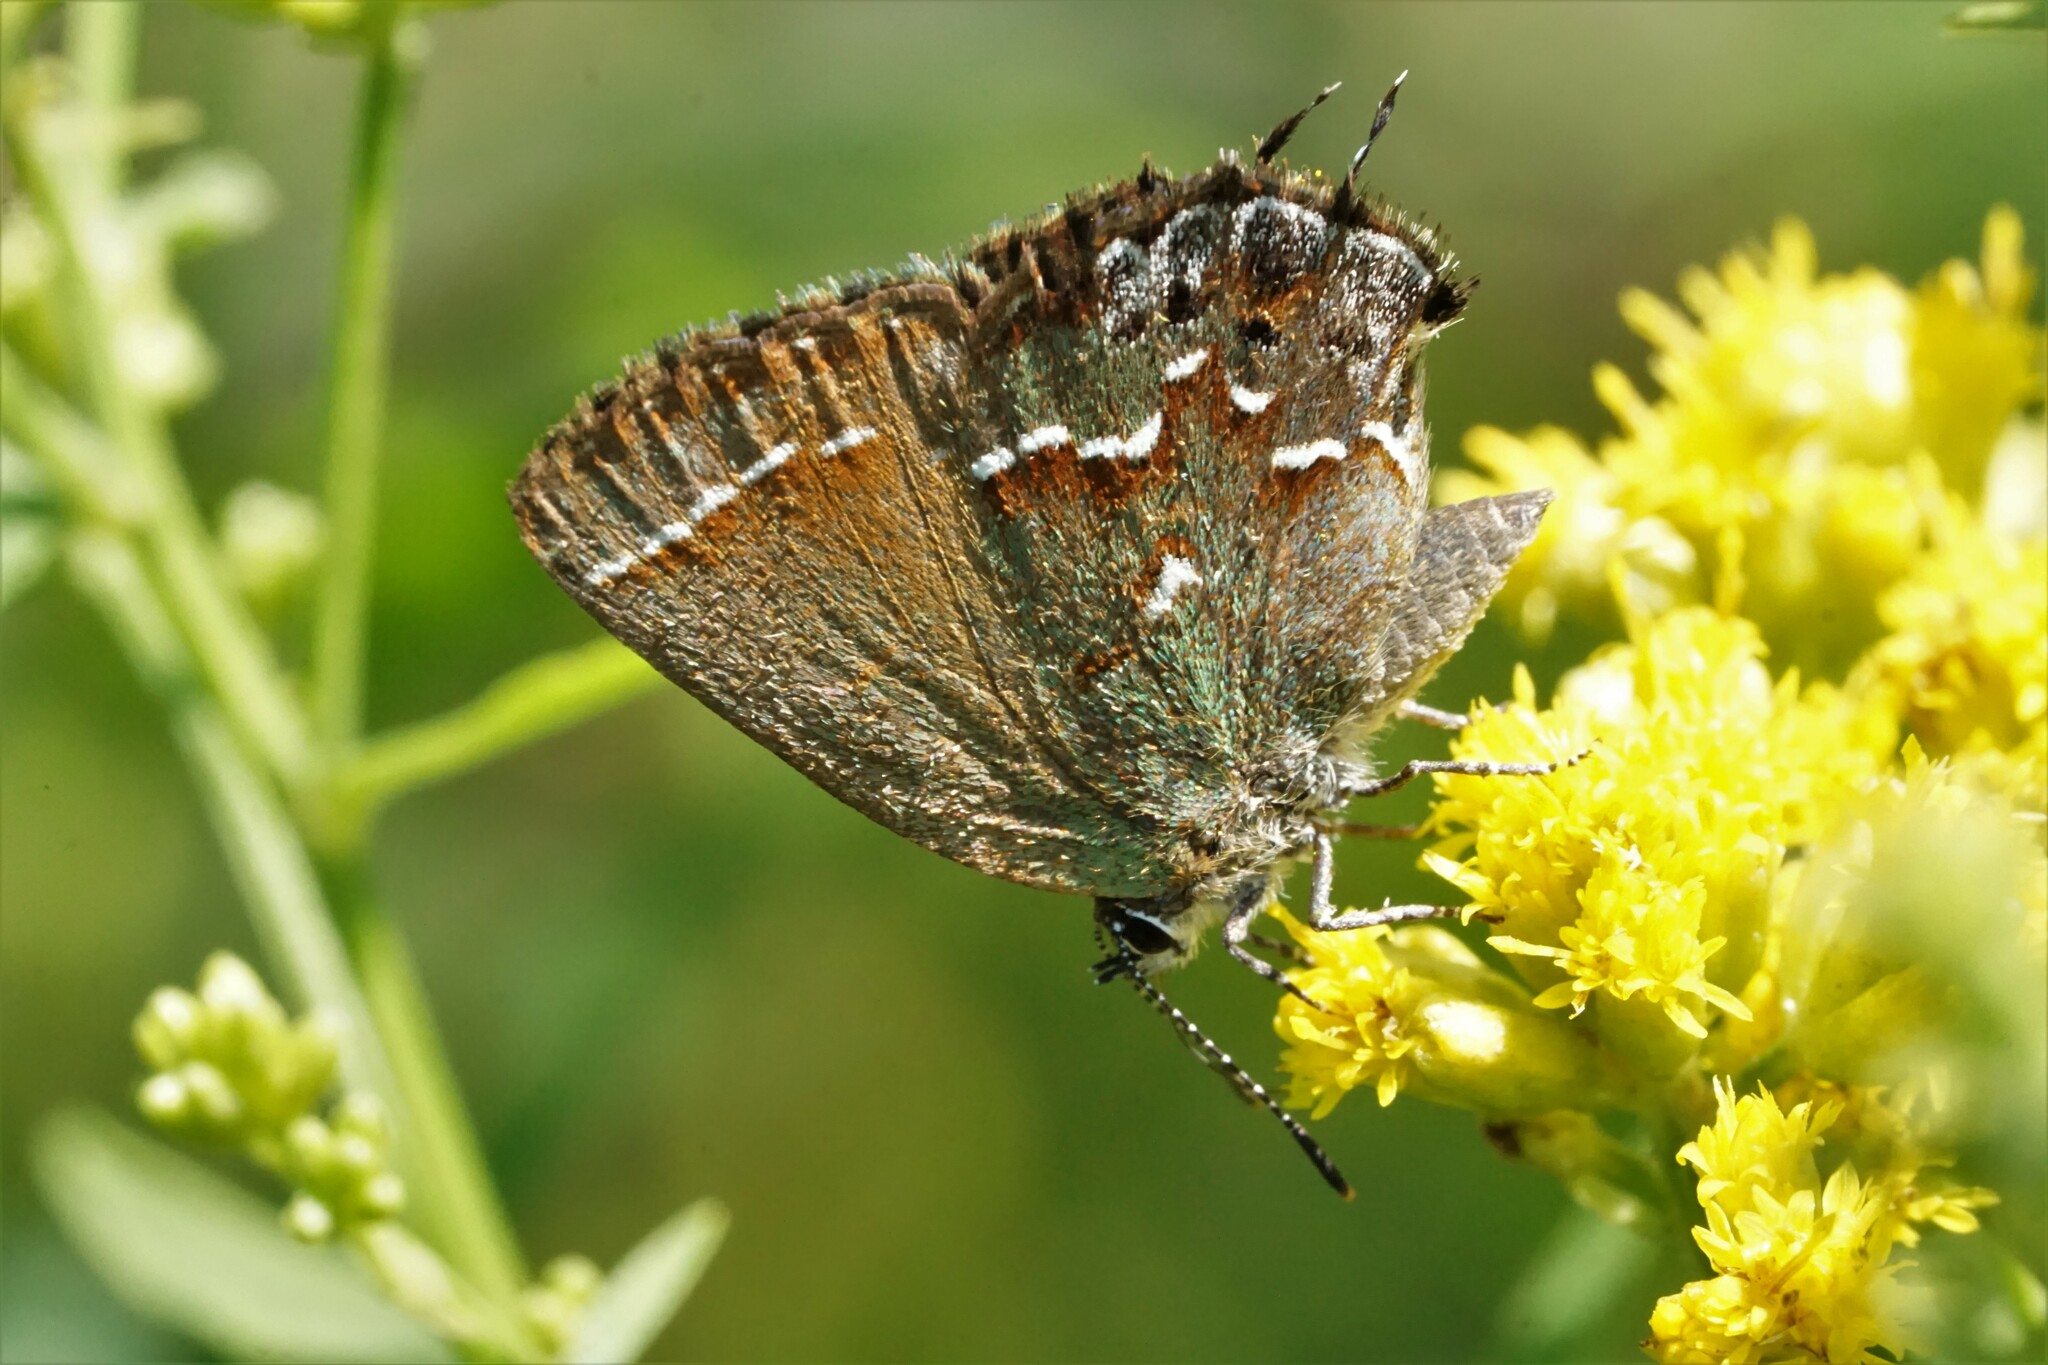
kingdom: Animalia
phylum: Arthropoda
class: Insecta
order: Lepidoptera
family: Lycaenidae
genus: Mitoura
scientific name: Mitoura gryneus
